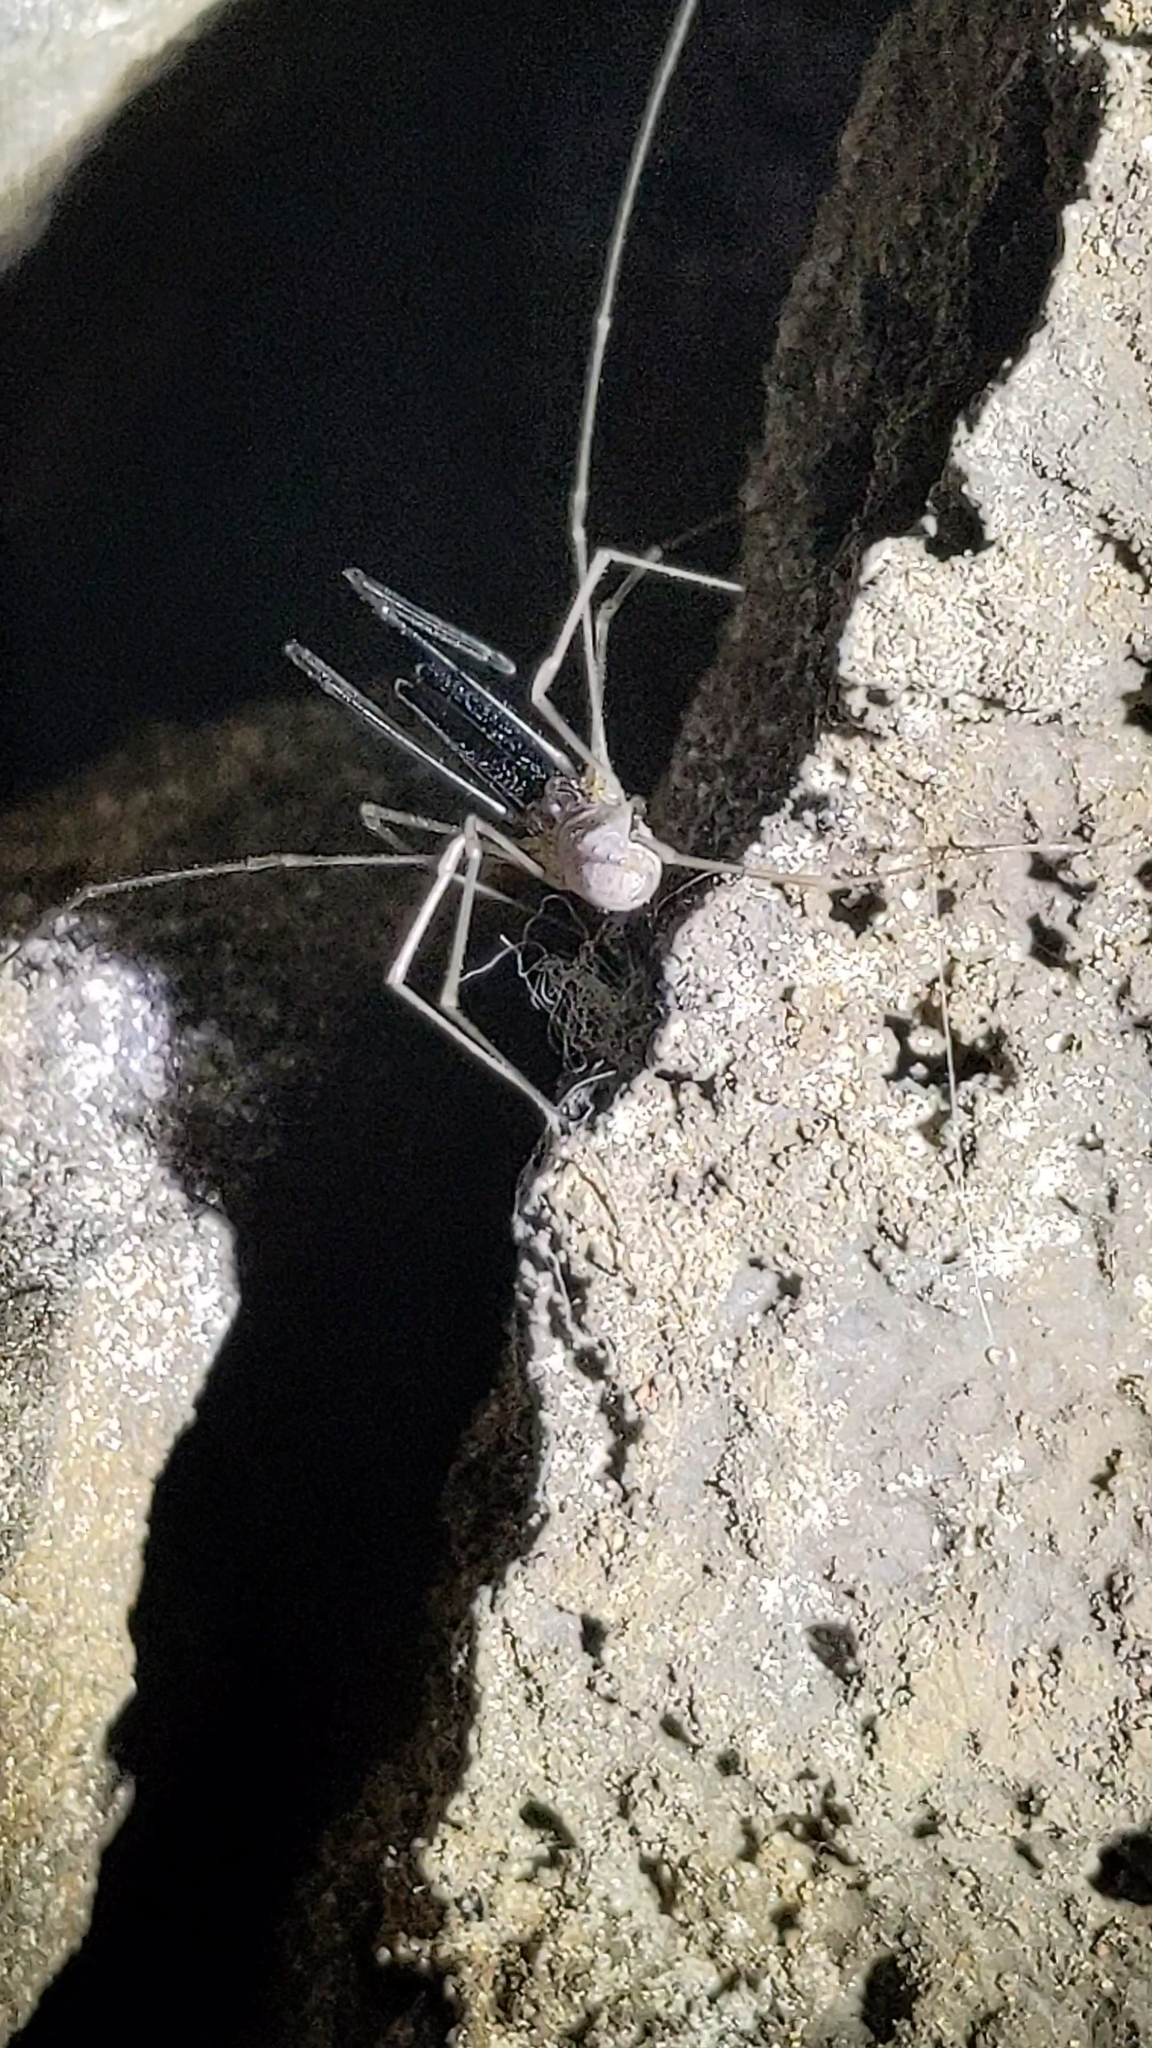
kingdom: Animalia
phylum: Arthropoda
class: Arachnida
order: Opiliones
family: Taracidae
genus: Taracus
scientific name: Taracus marchingtoni
